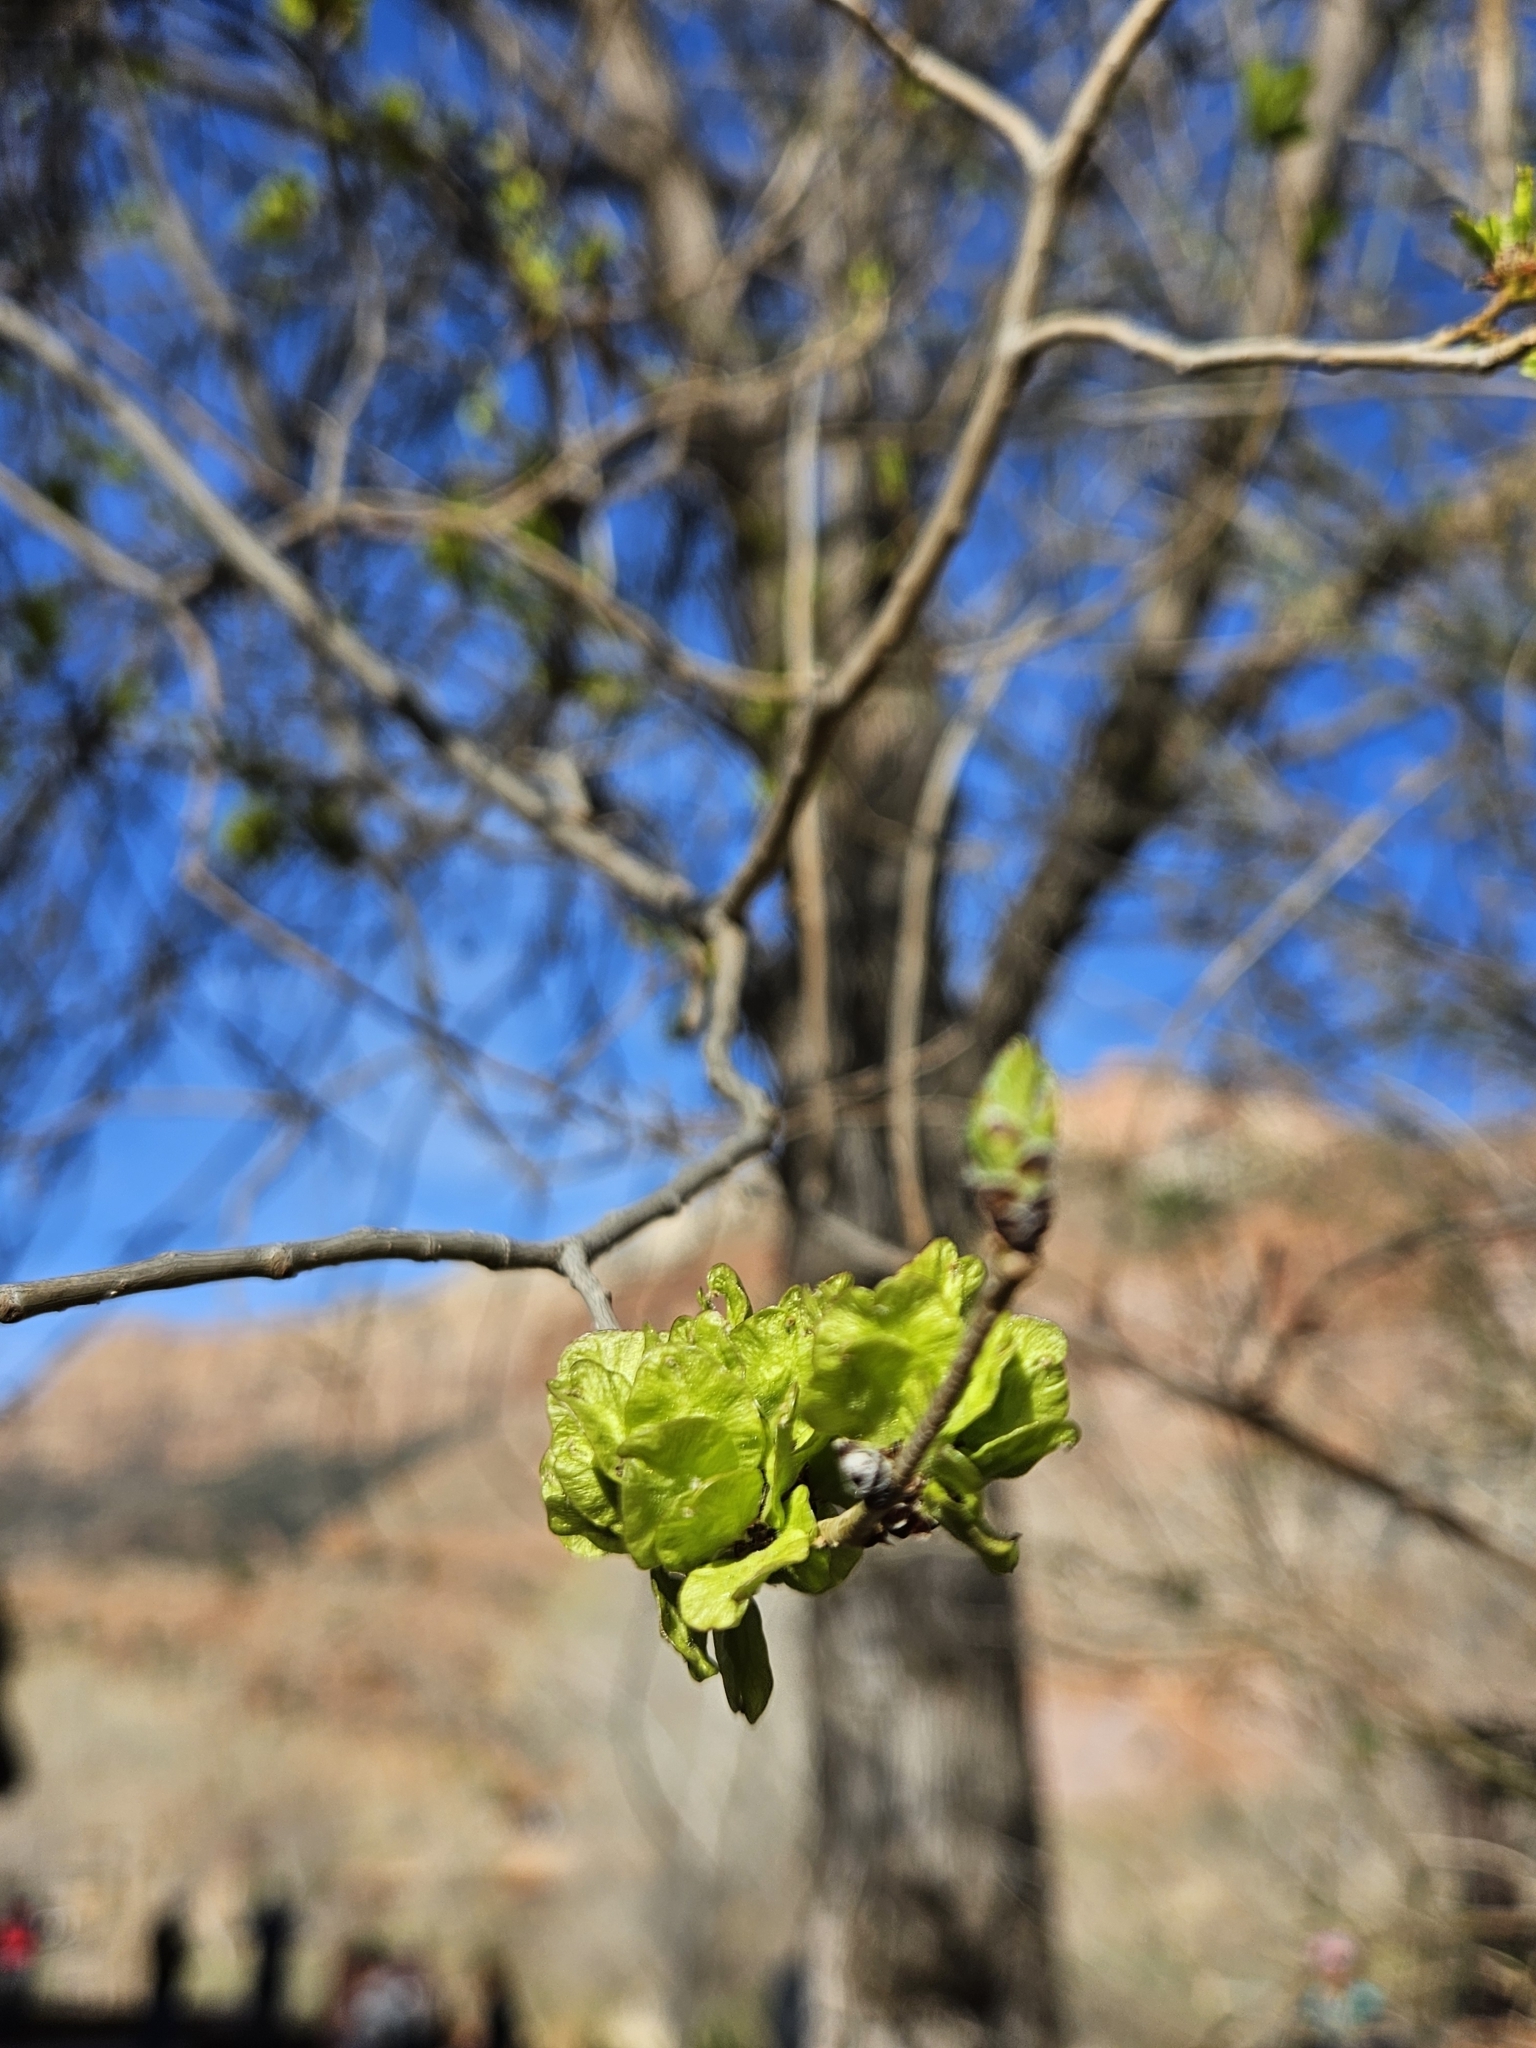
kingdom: Plantae
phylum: Tracheophyta
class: Magnoliopsida
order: Rosales
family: Ulmaceae
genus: Ulmus
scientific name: Ulmus pumila
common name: Siberian elm
